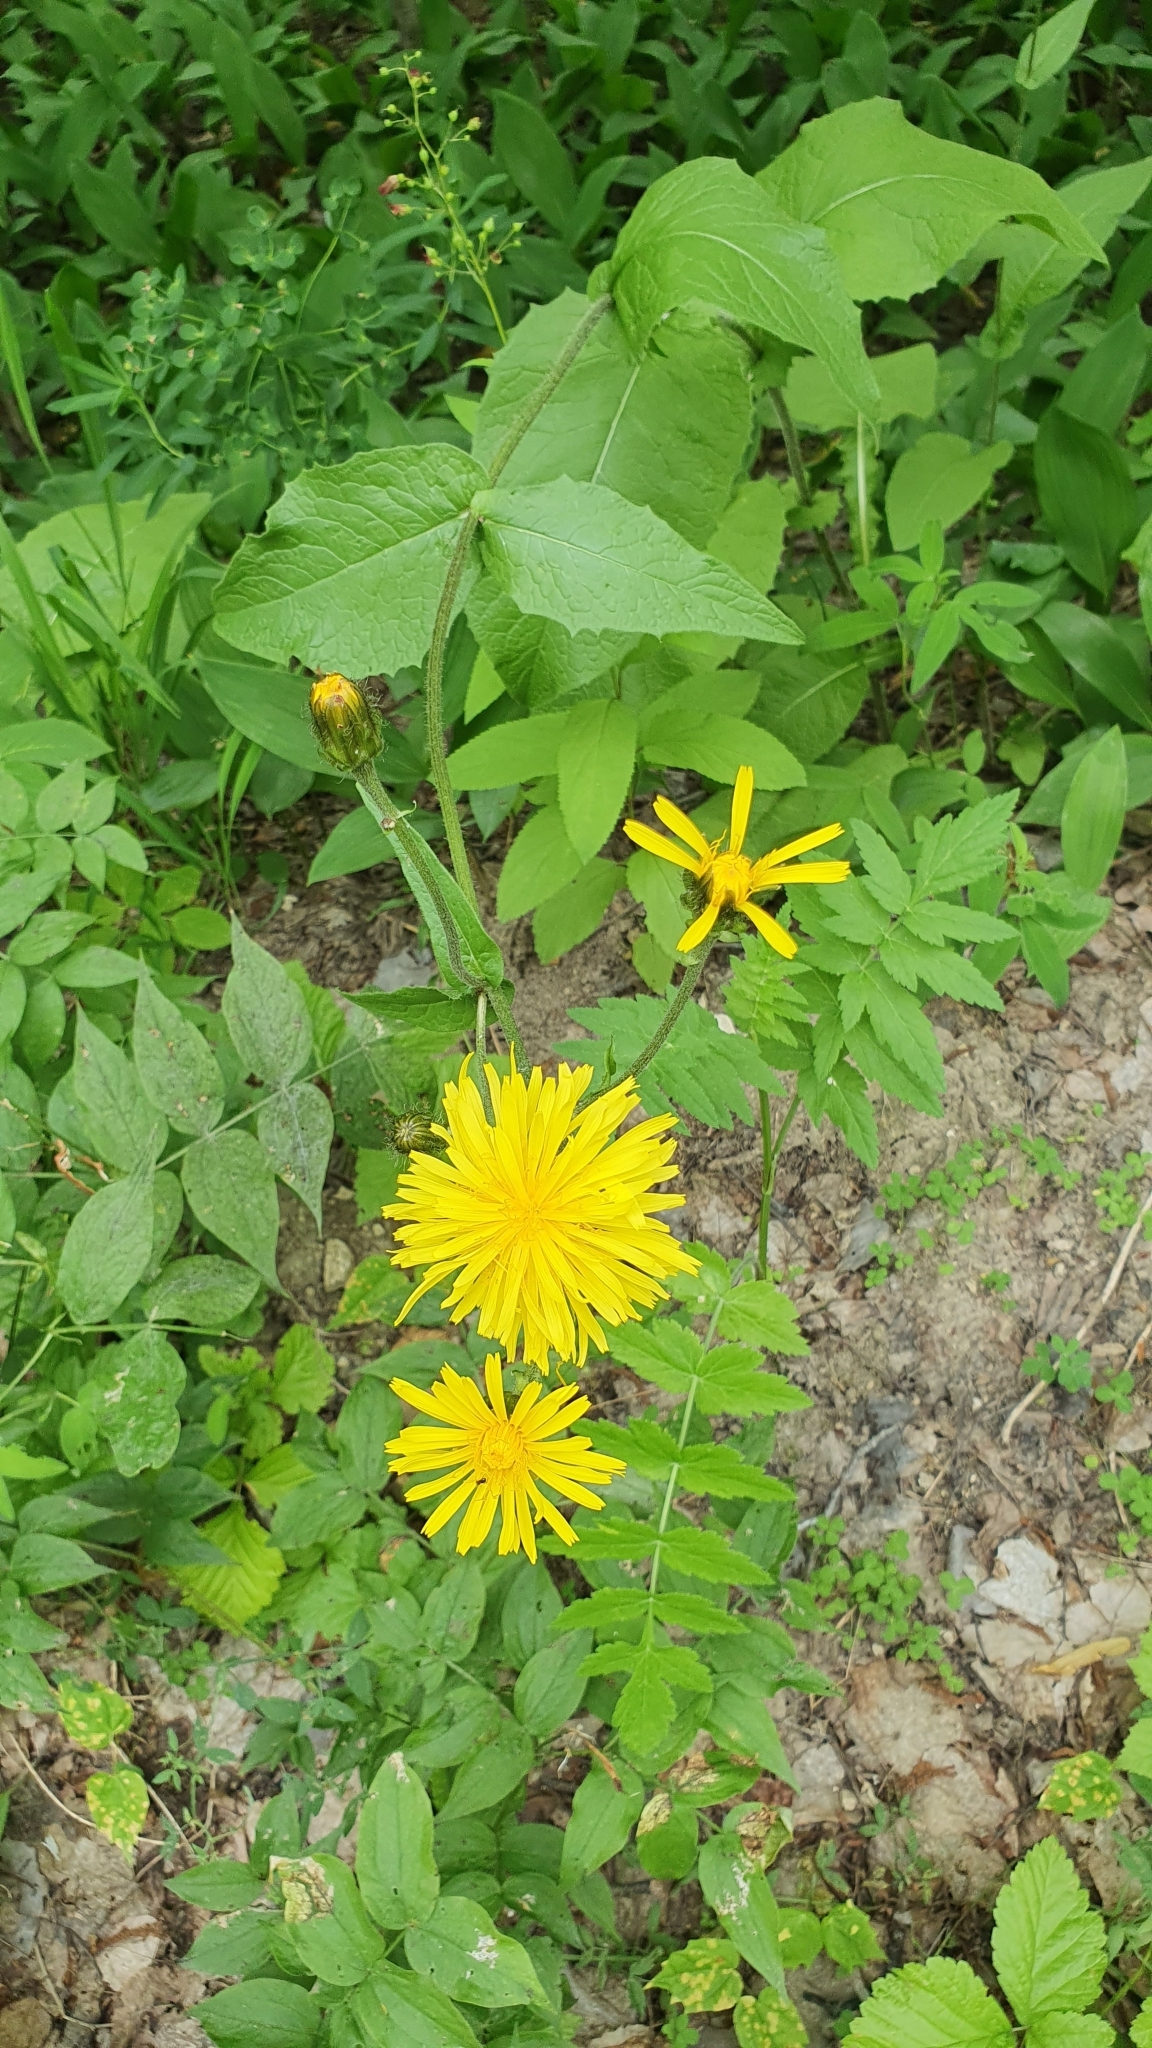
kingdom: Plantae
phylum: Tracheophyta
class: Magnoliopsida
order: Asterales
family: Asteraceae
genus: Crepis
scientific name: Crepis sibirica
